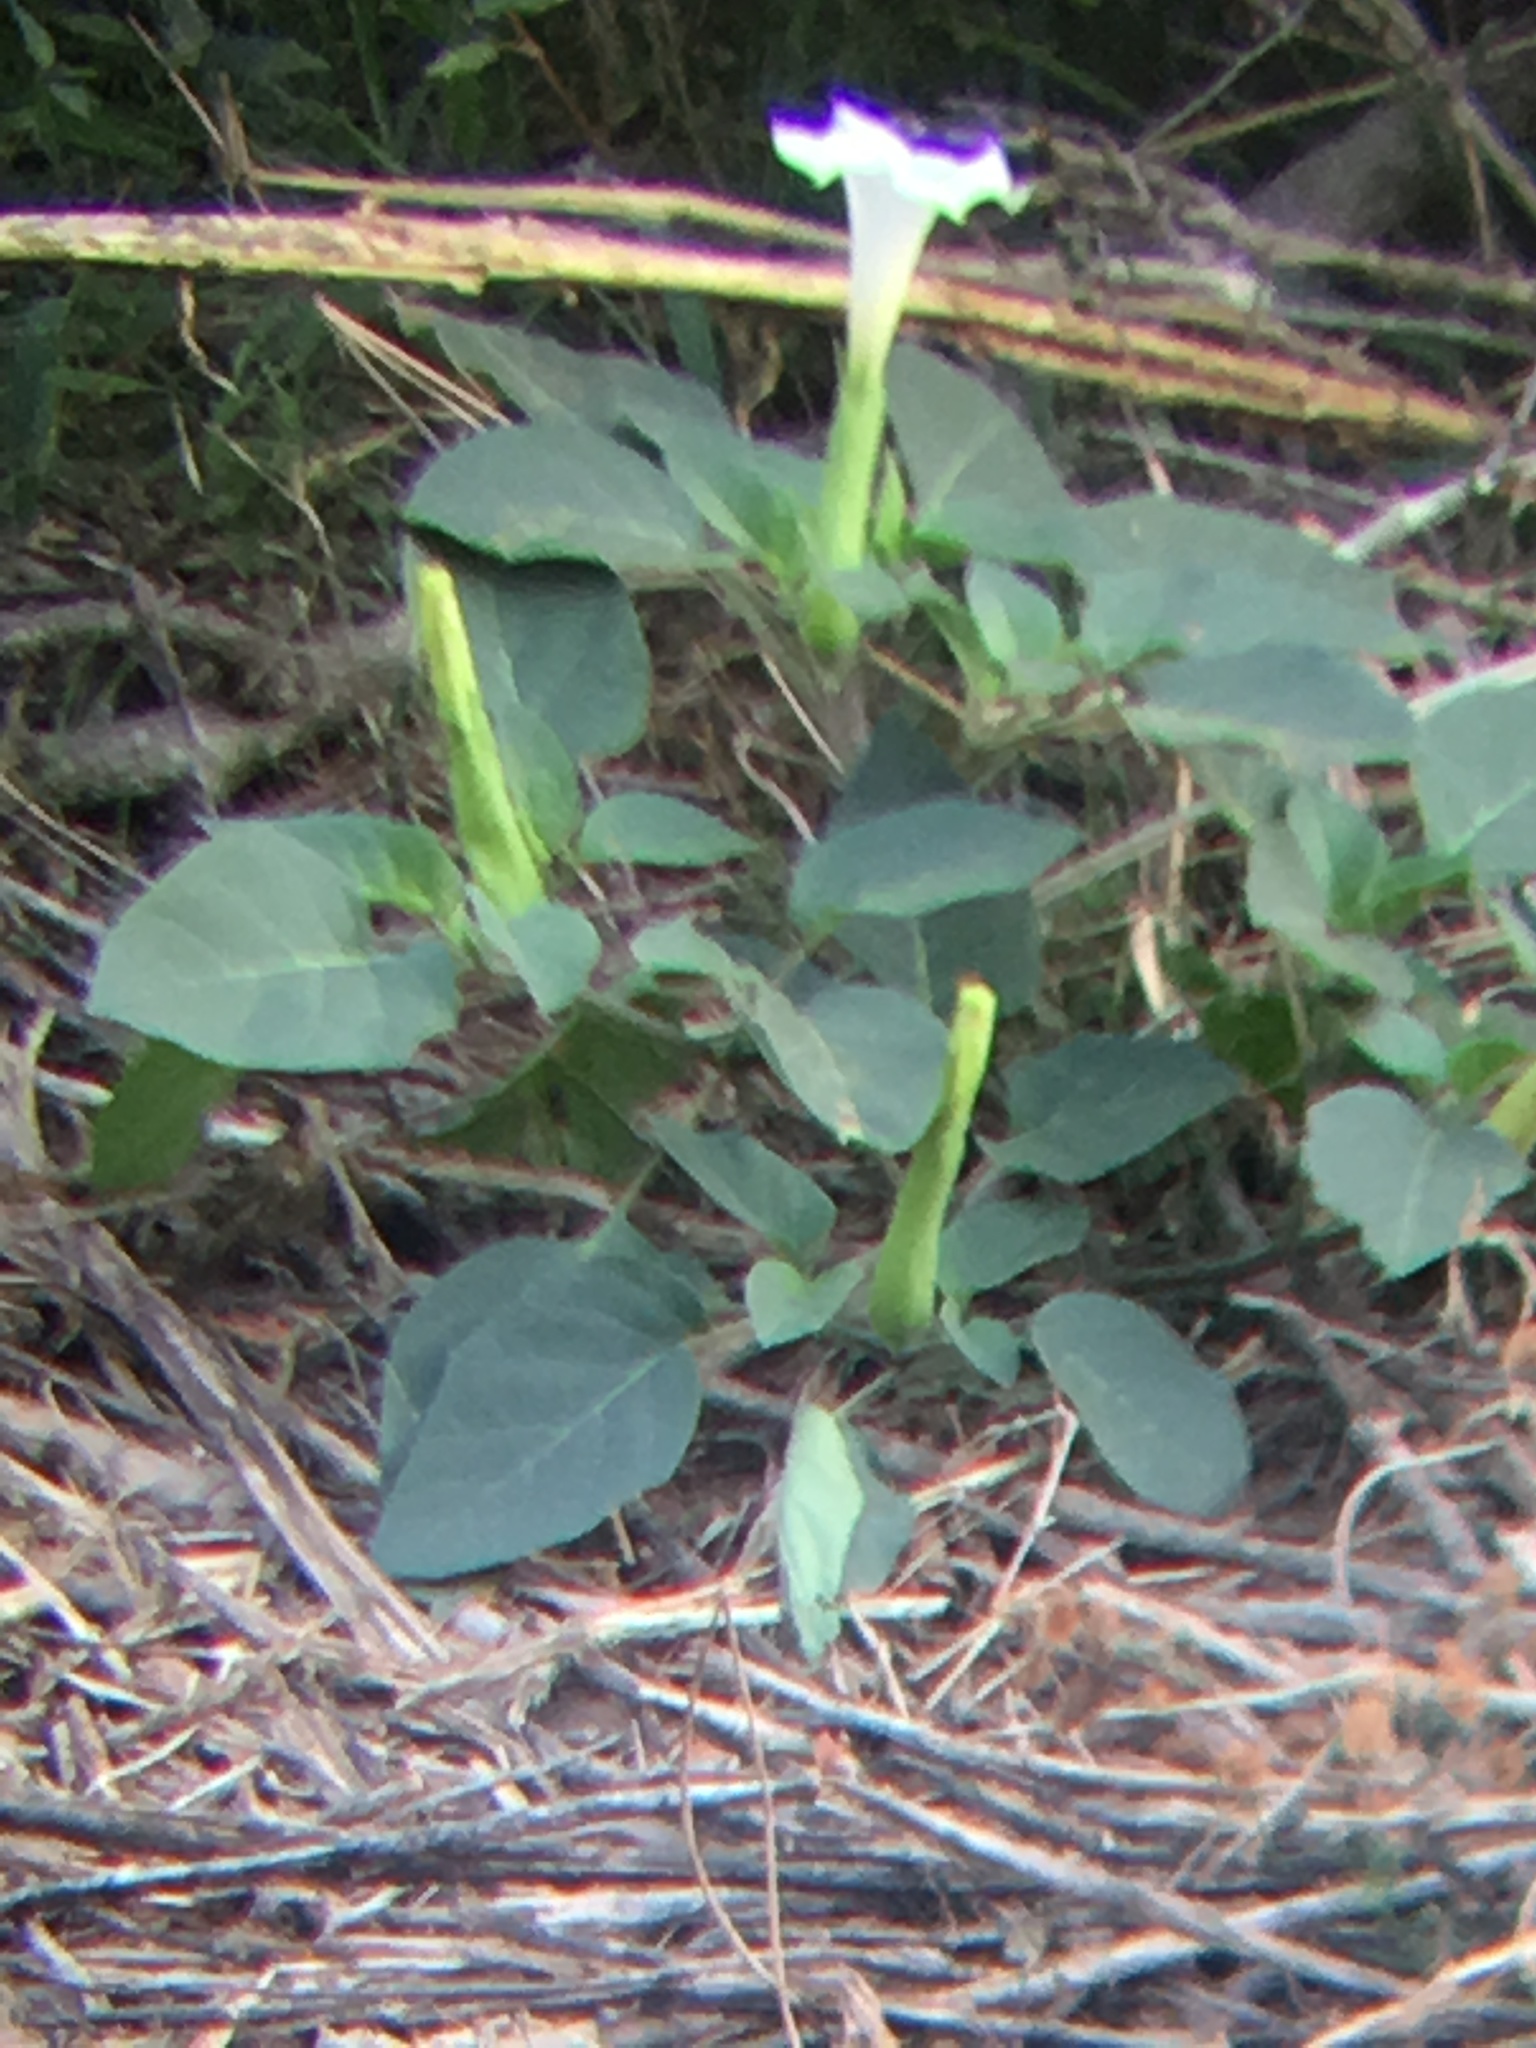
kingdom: Plantae
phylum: Tracheophyta
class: Magnoliopsida
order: Solanales
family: Solanaceae
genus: Datura
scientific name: Datura innoxia
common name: Downy thorn-apple
